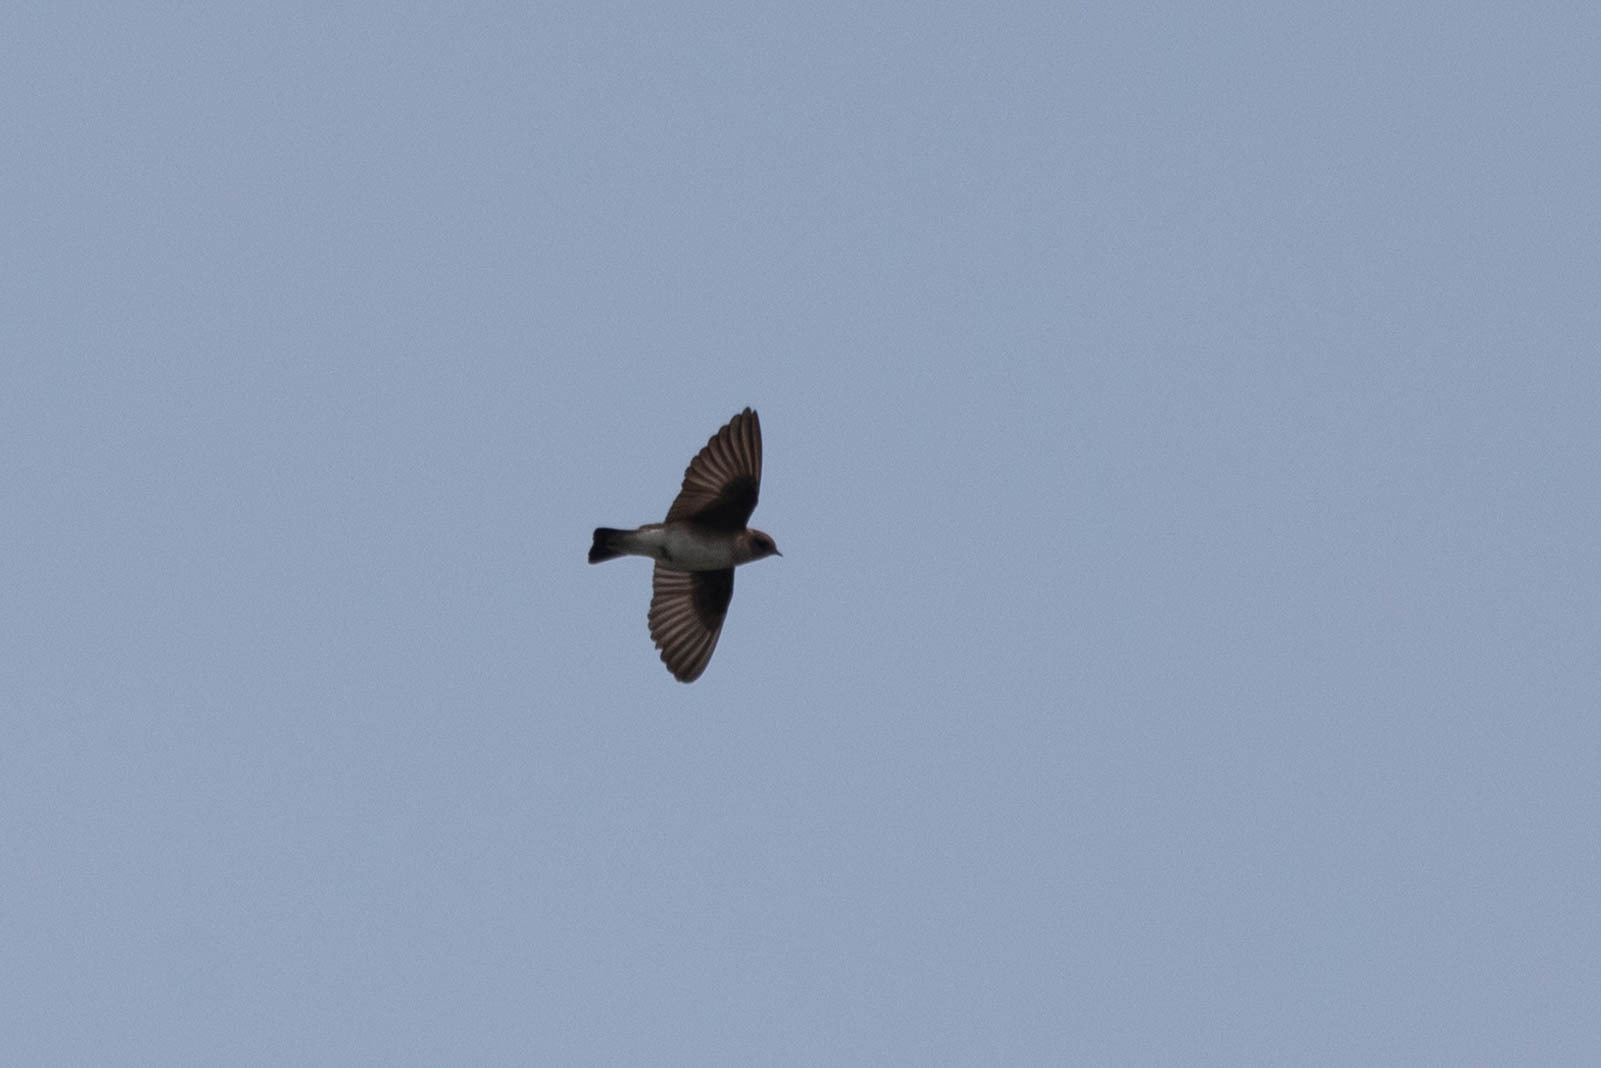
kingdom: Animalia
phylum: Chordata
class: Aves
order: Passeriformes
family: Hirundinidae
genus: Stelgidopteryx
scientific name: Stelgidopteryx serripennis
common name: Northern rough-winged swallow
